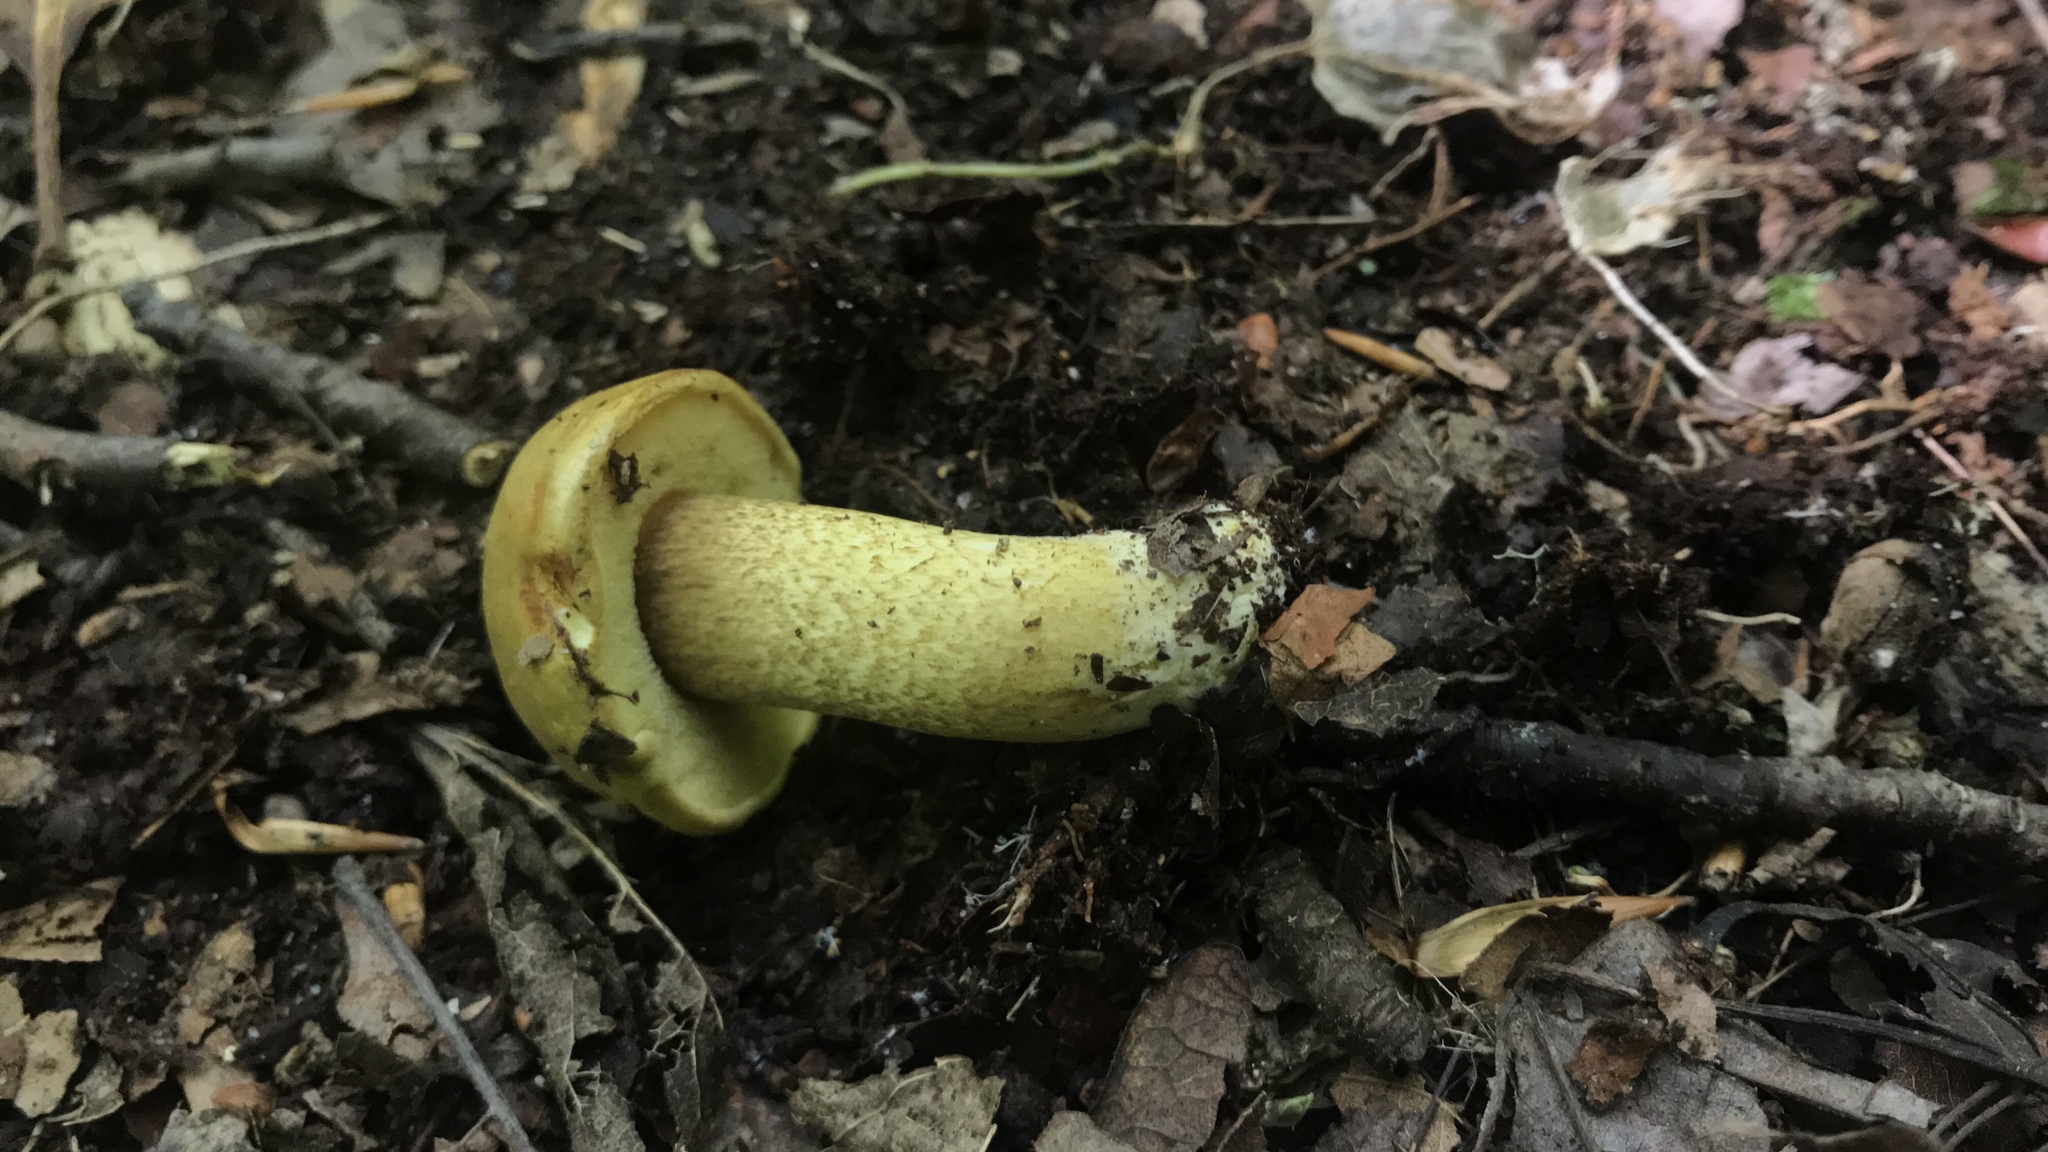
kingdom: Fungi
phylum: Basidiomycota
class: Agaricomycetes
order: Boletales
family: Boletaceae
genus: Pseudoboletus
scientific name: Pseudoboletus parasiticus
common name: Parasitic bolete
